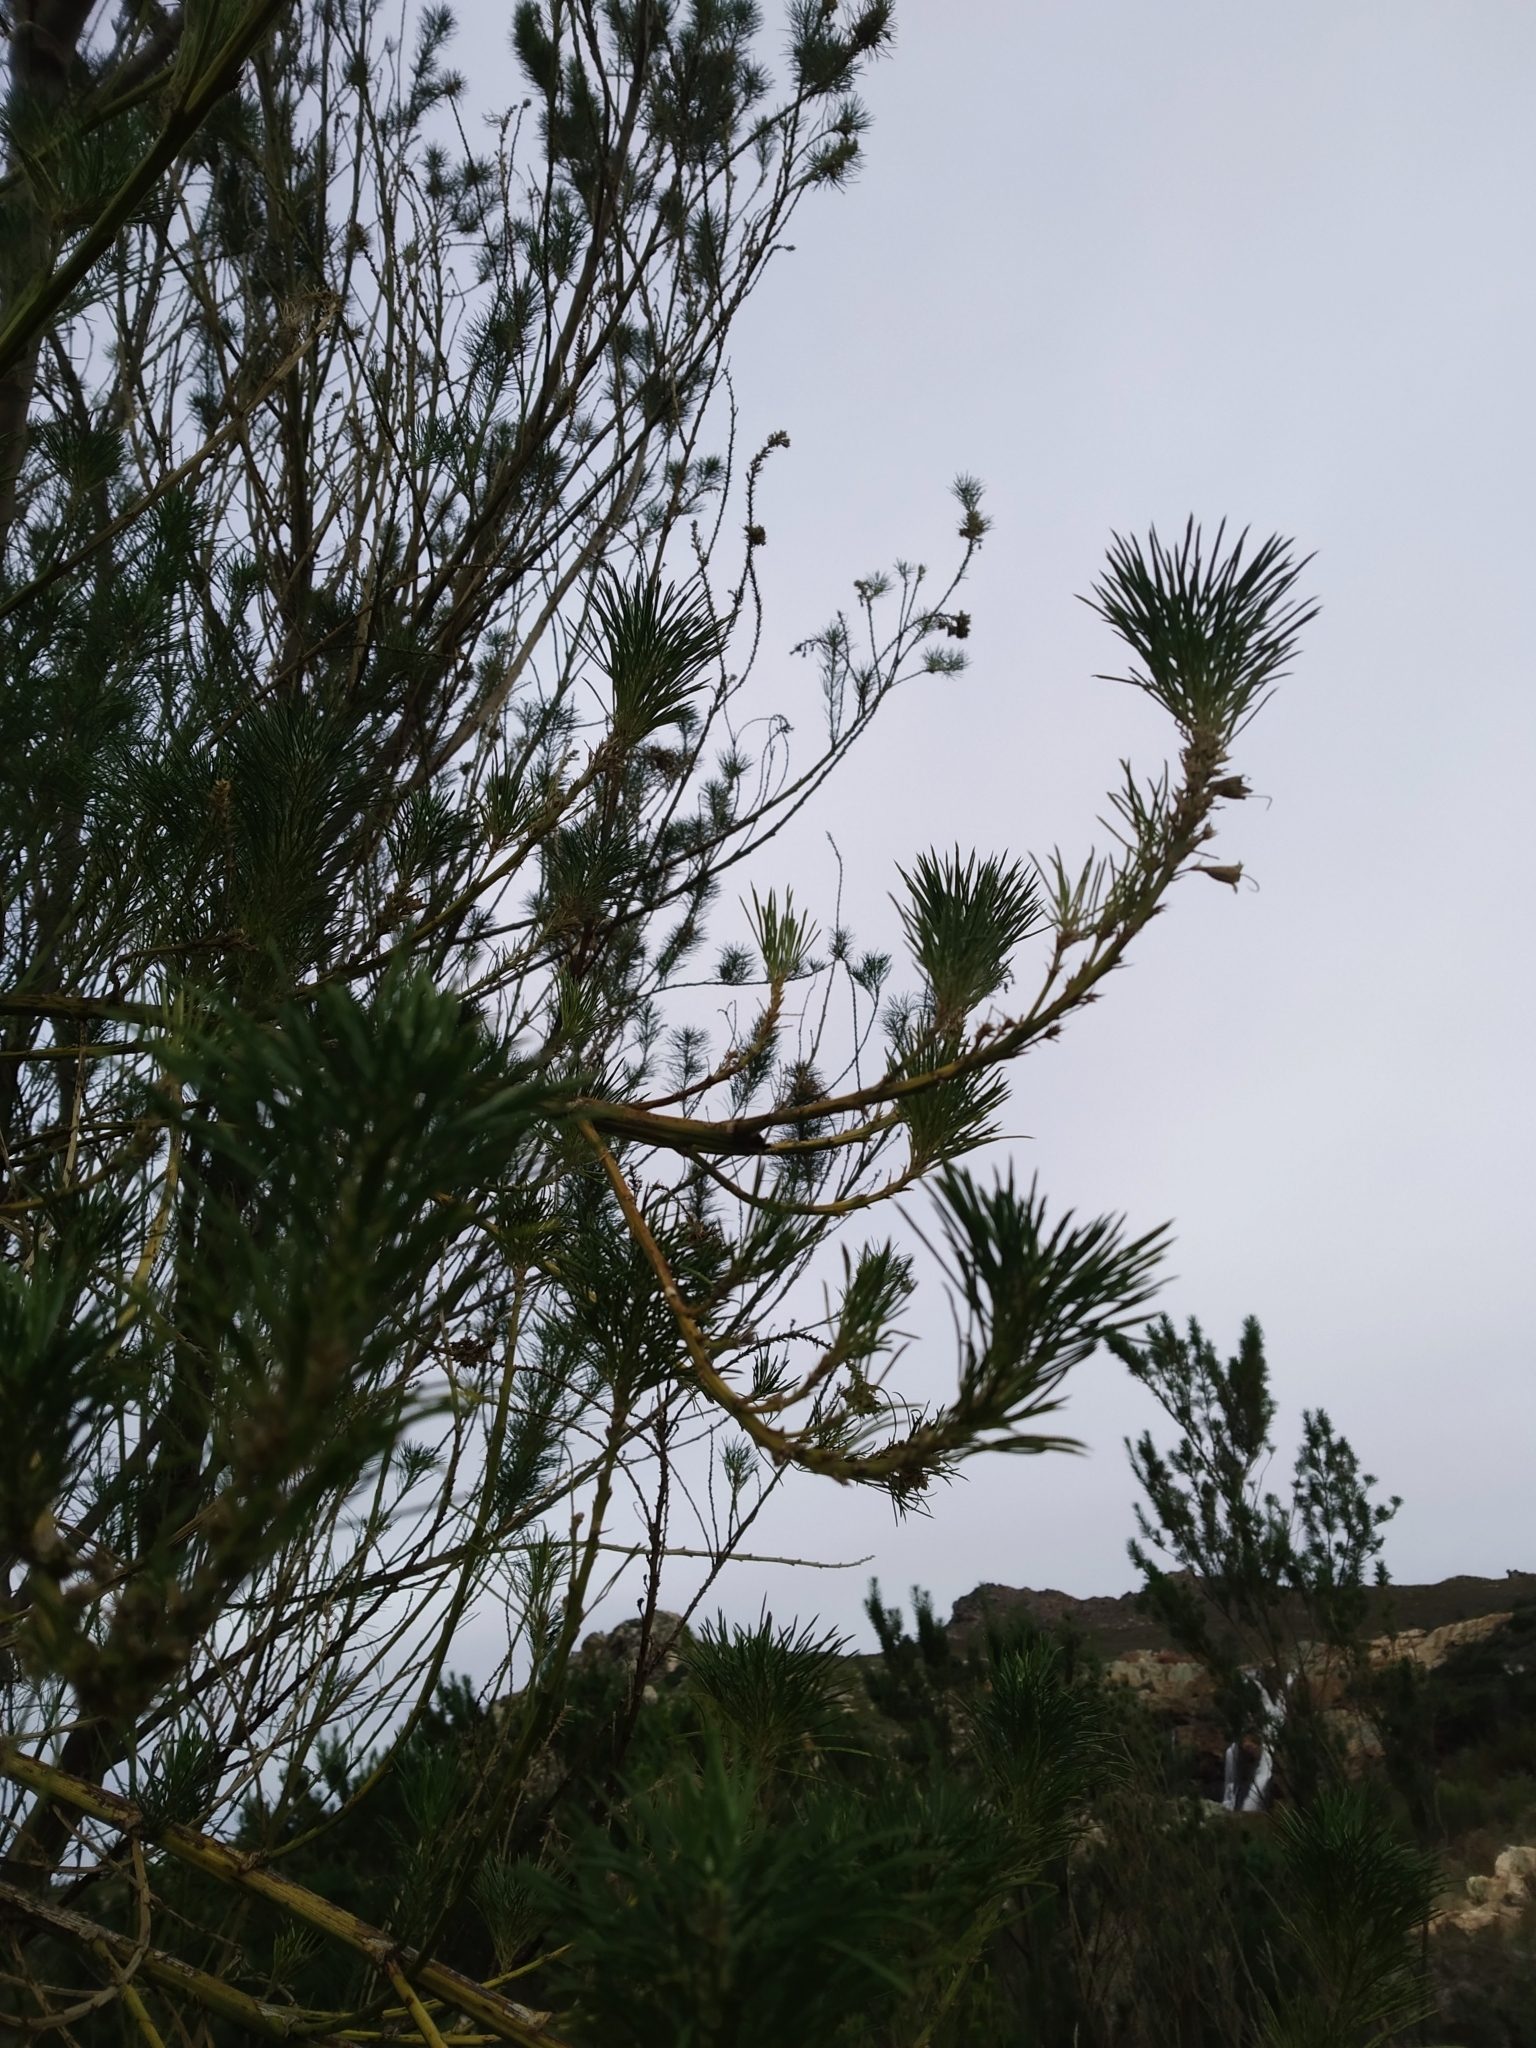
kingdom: Fungi
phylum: Basidiomycota
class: Agaricomycetes
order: Agaricales
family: Pluteaceae
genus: Volvopluteus
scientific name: Volvopluteus gloiocephalus
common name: Stubble rosegill
